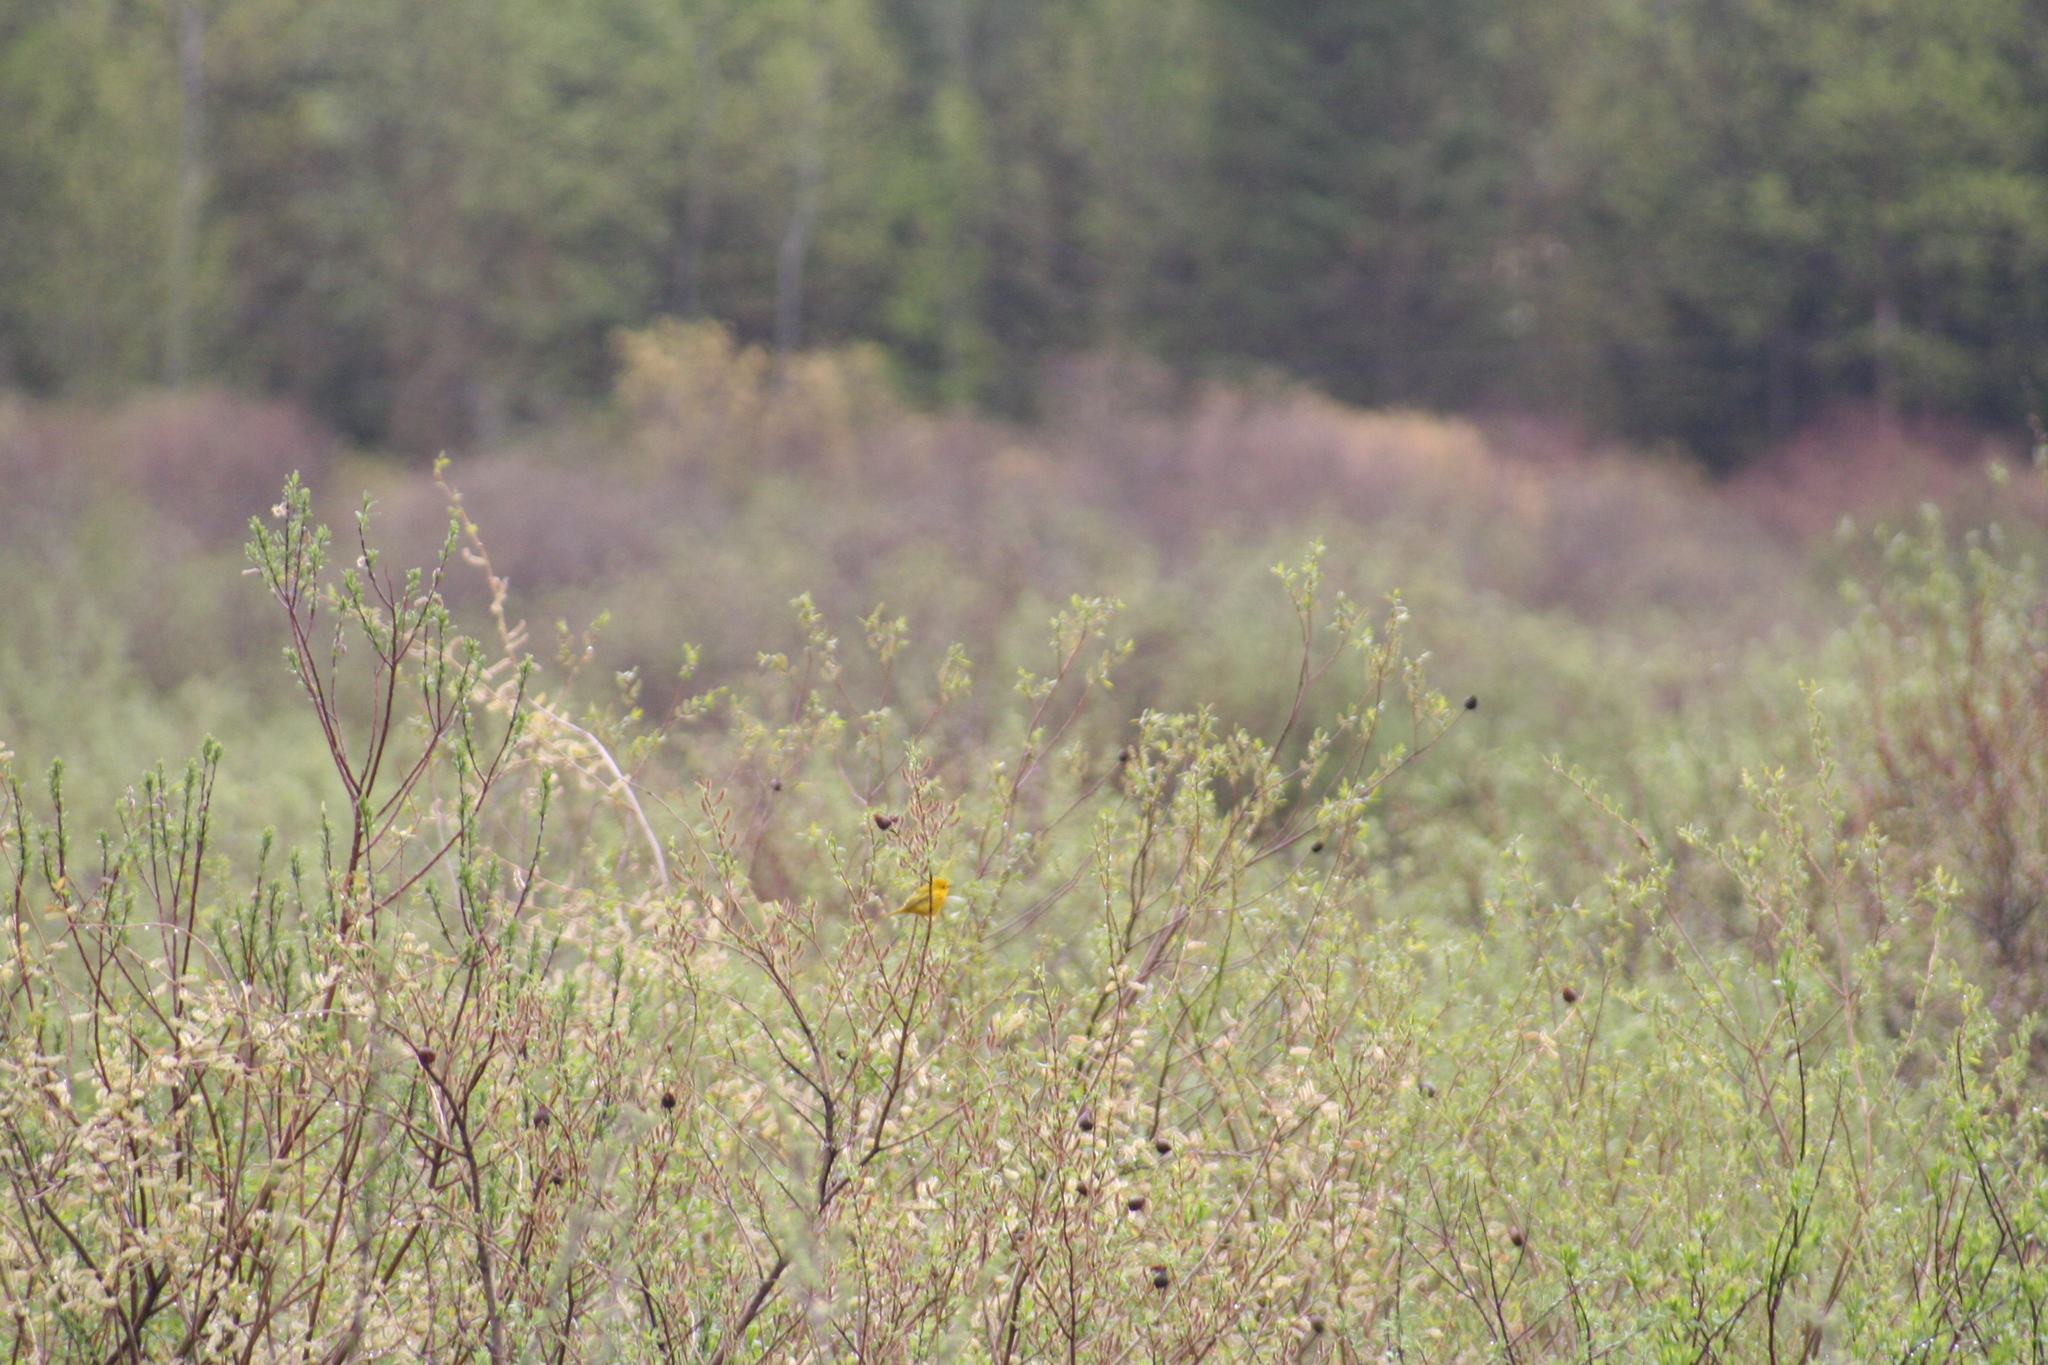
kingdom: Animalia
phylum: Chordata
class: Aves
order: Passeriformes
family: Parulidae
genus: Setophaga
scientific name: Setophaga petechia
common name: Yellow warbler
